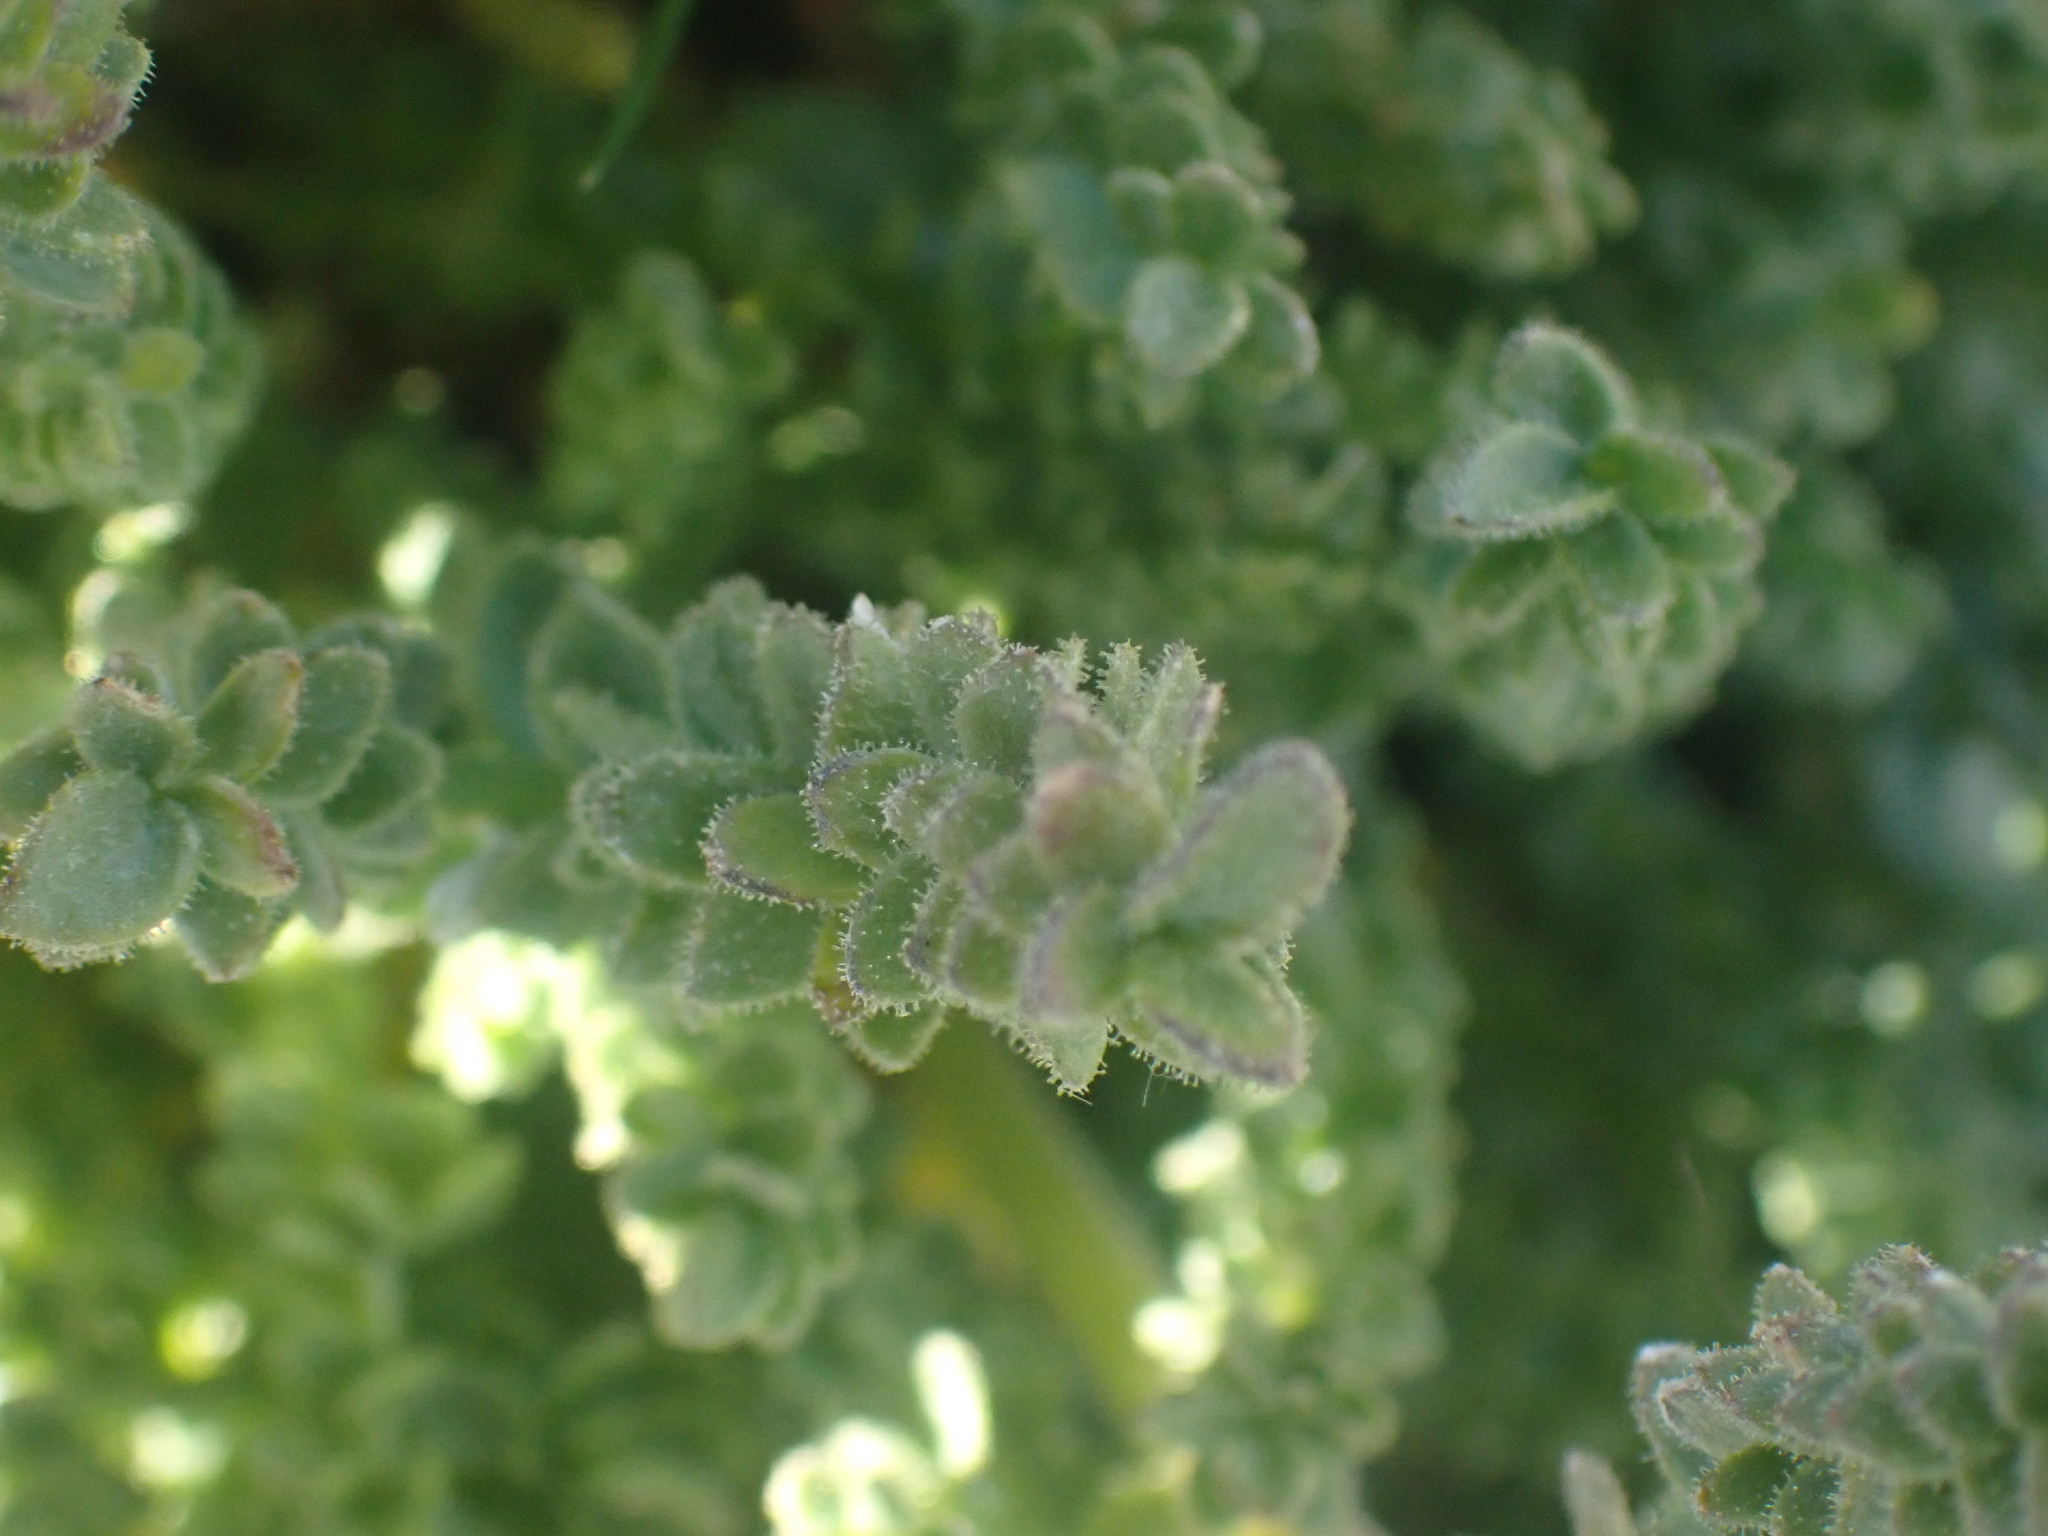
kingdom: Plantae
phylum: Tracheophyta
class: Magnoliopsida
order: Ericales
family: Polemoniaceae
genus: Polemonium
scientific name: Polemonium viscosum
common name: Skunk jacob's-ladder
